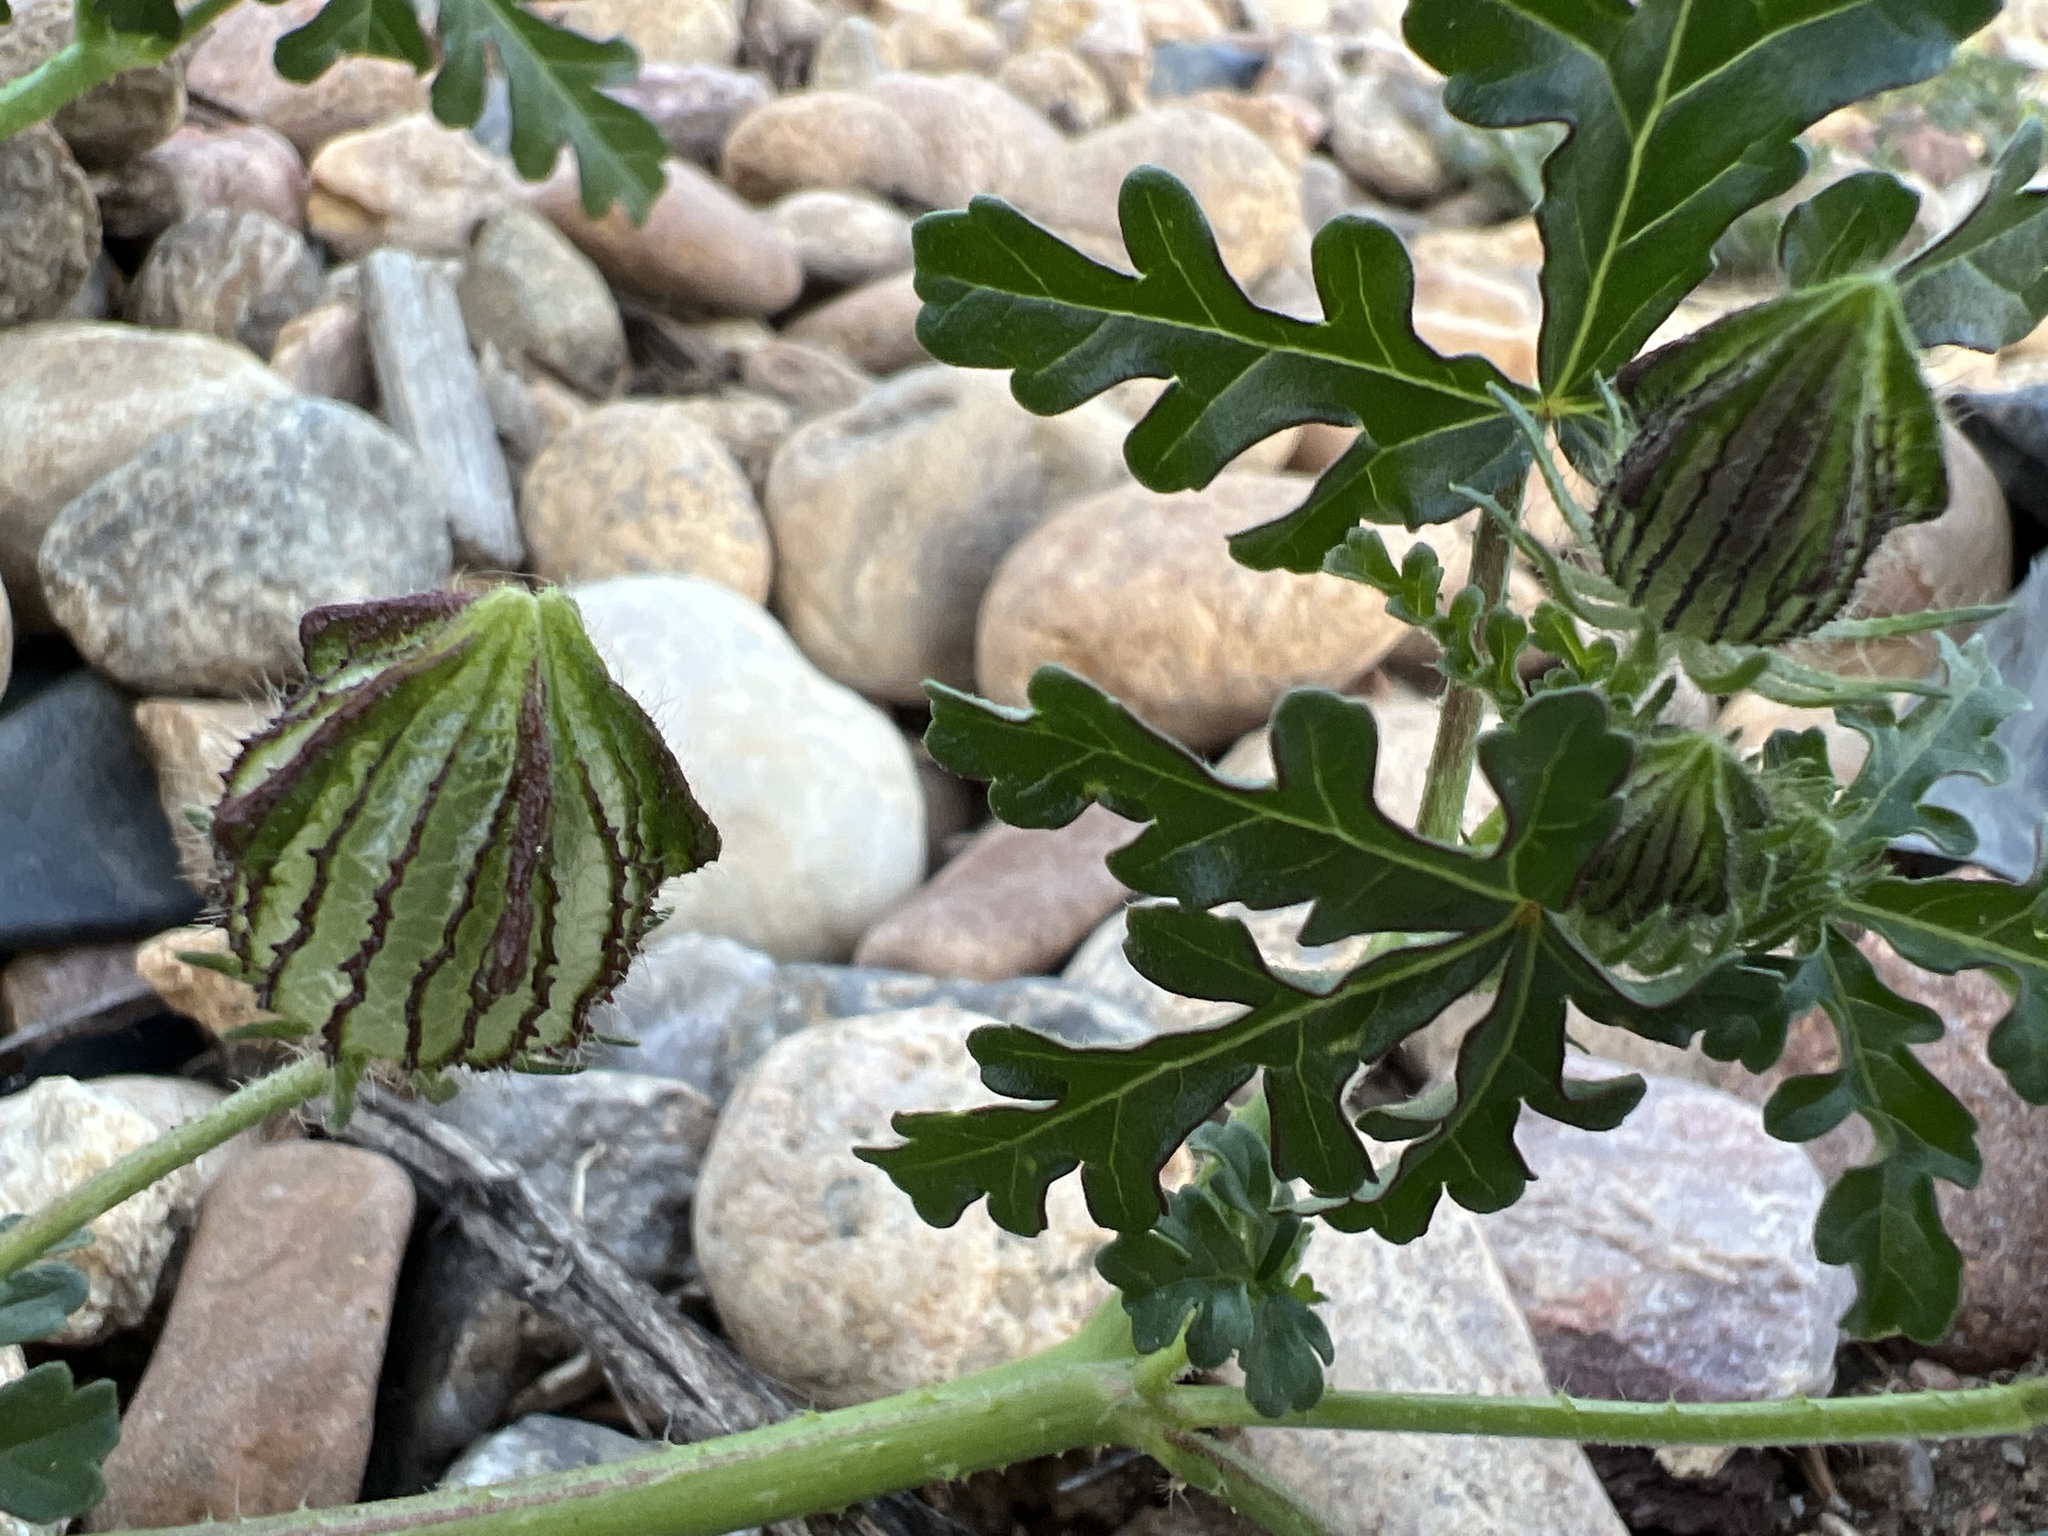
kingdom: Plantae
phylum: Tracheophyta
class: Magnoliopsida
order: Malvales
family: Malvaceae
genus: Hibiscus
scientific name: Hibiscus trionum
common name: Bladder ketmia
